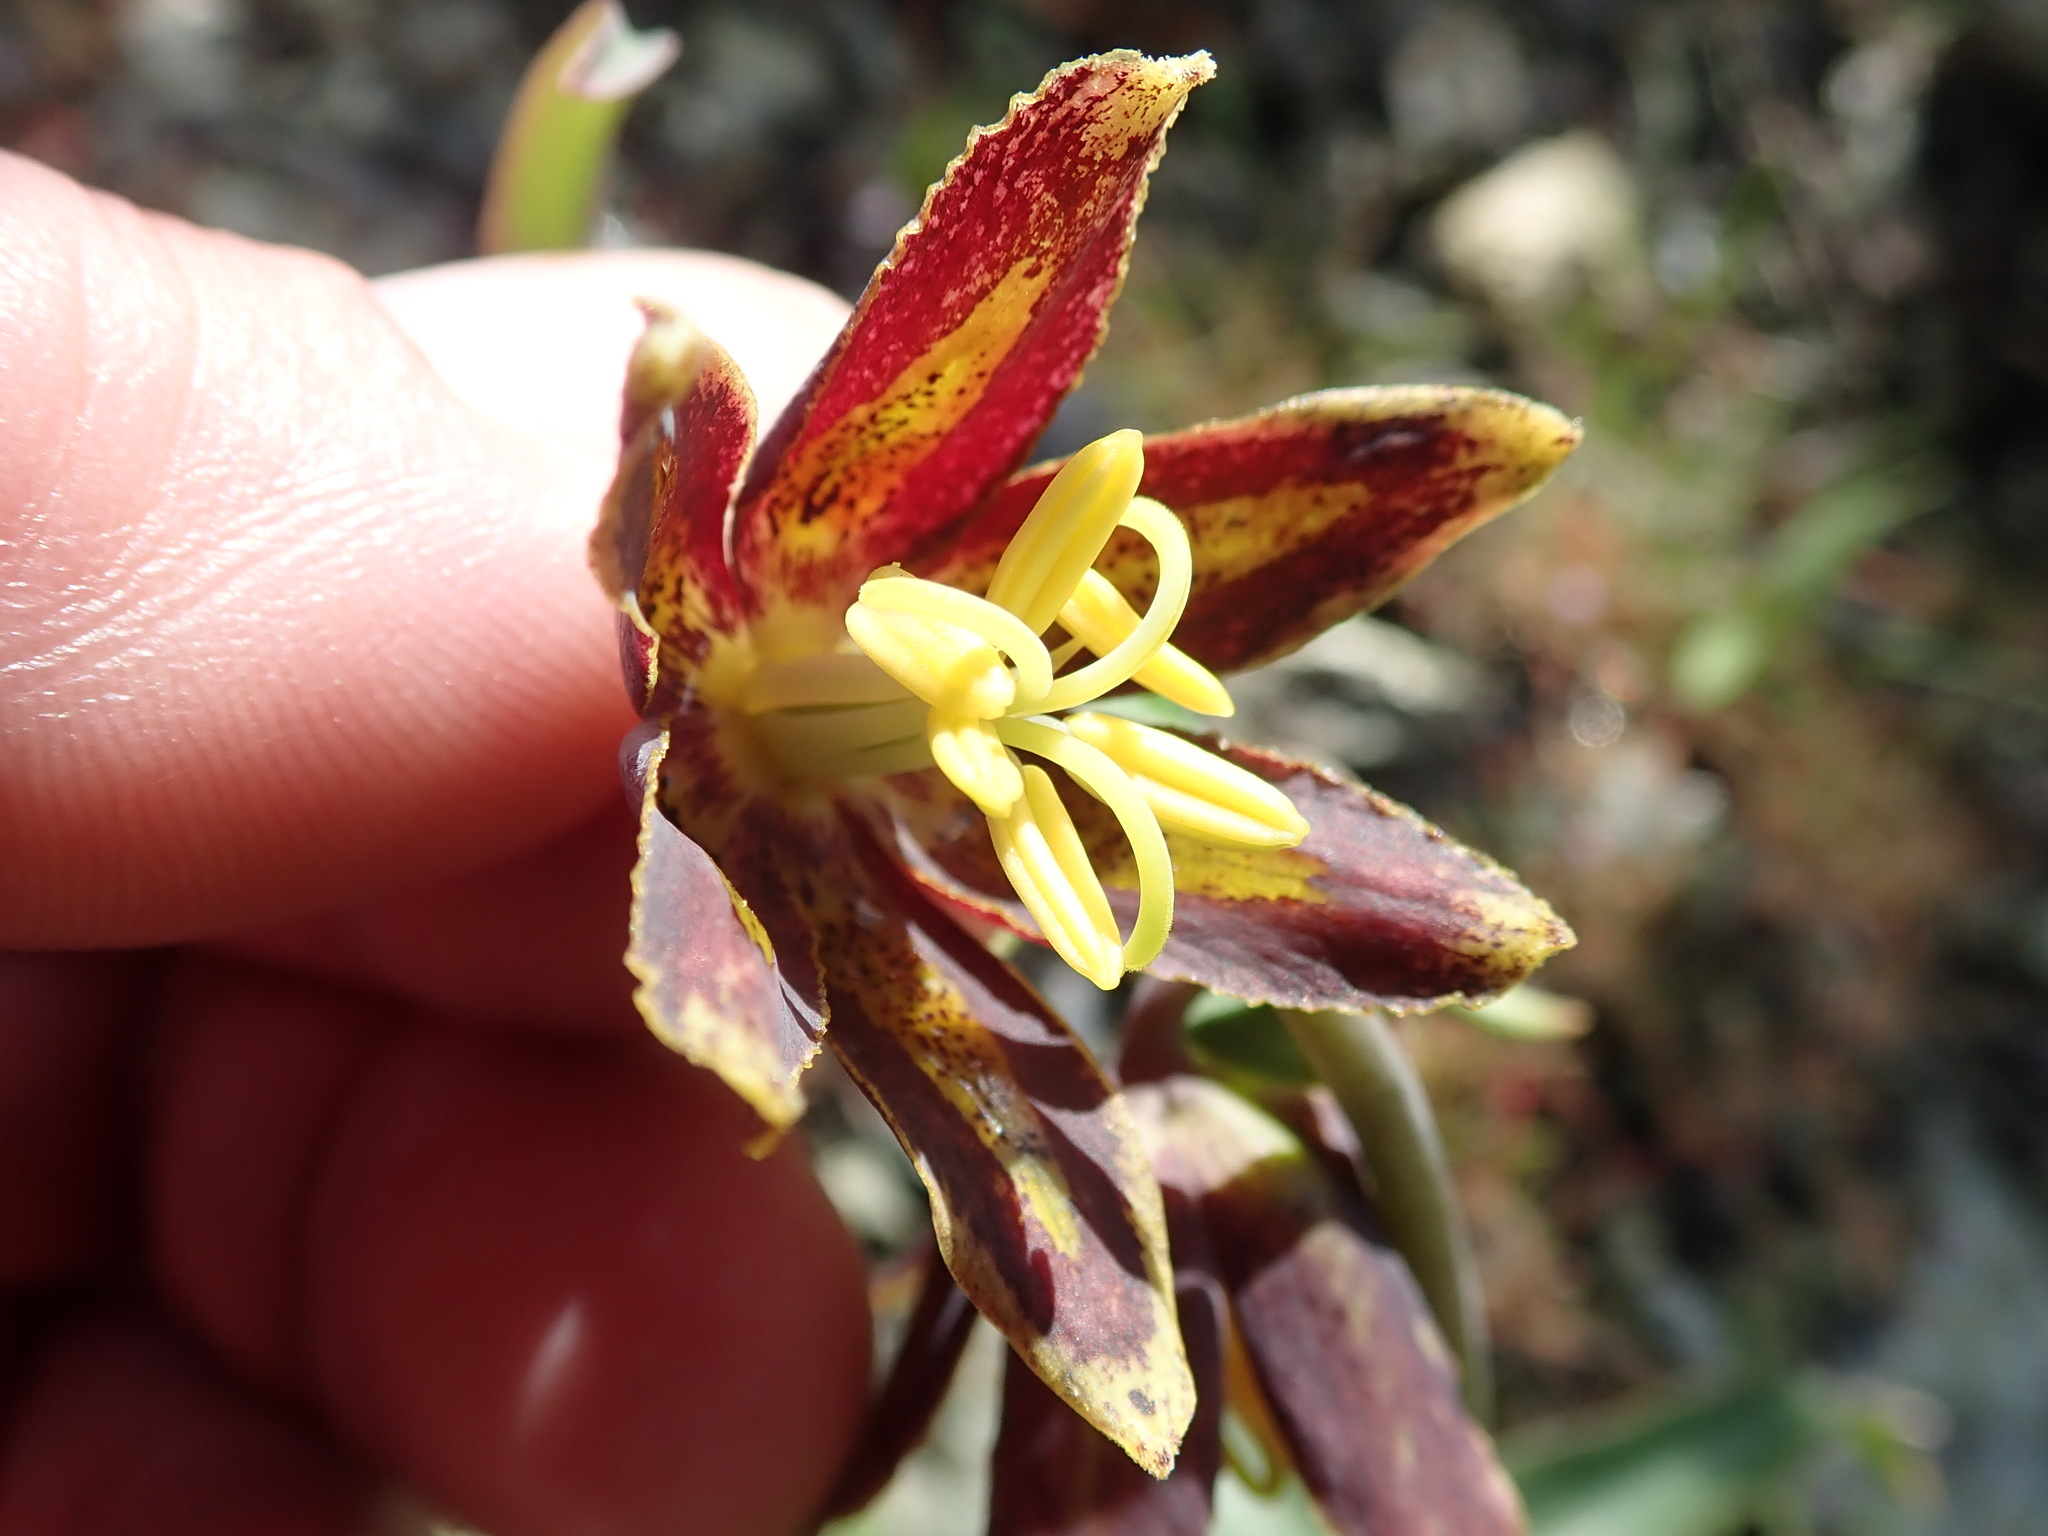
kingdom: Plantae
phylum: Tracheophyta
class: Liliopsida
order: Liliales
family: Liliaceae
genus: Fritillaria
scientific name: Fritillaria affinis
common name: Ojai fritillary
